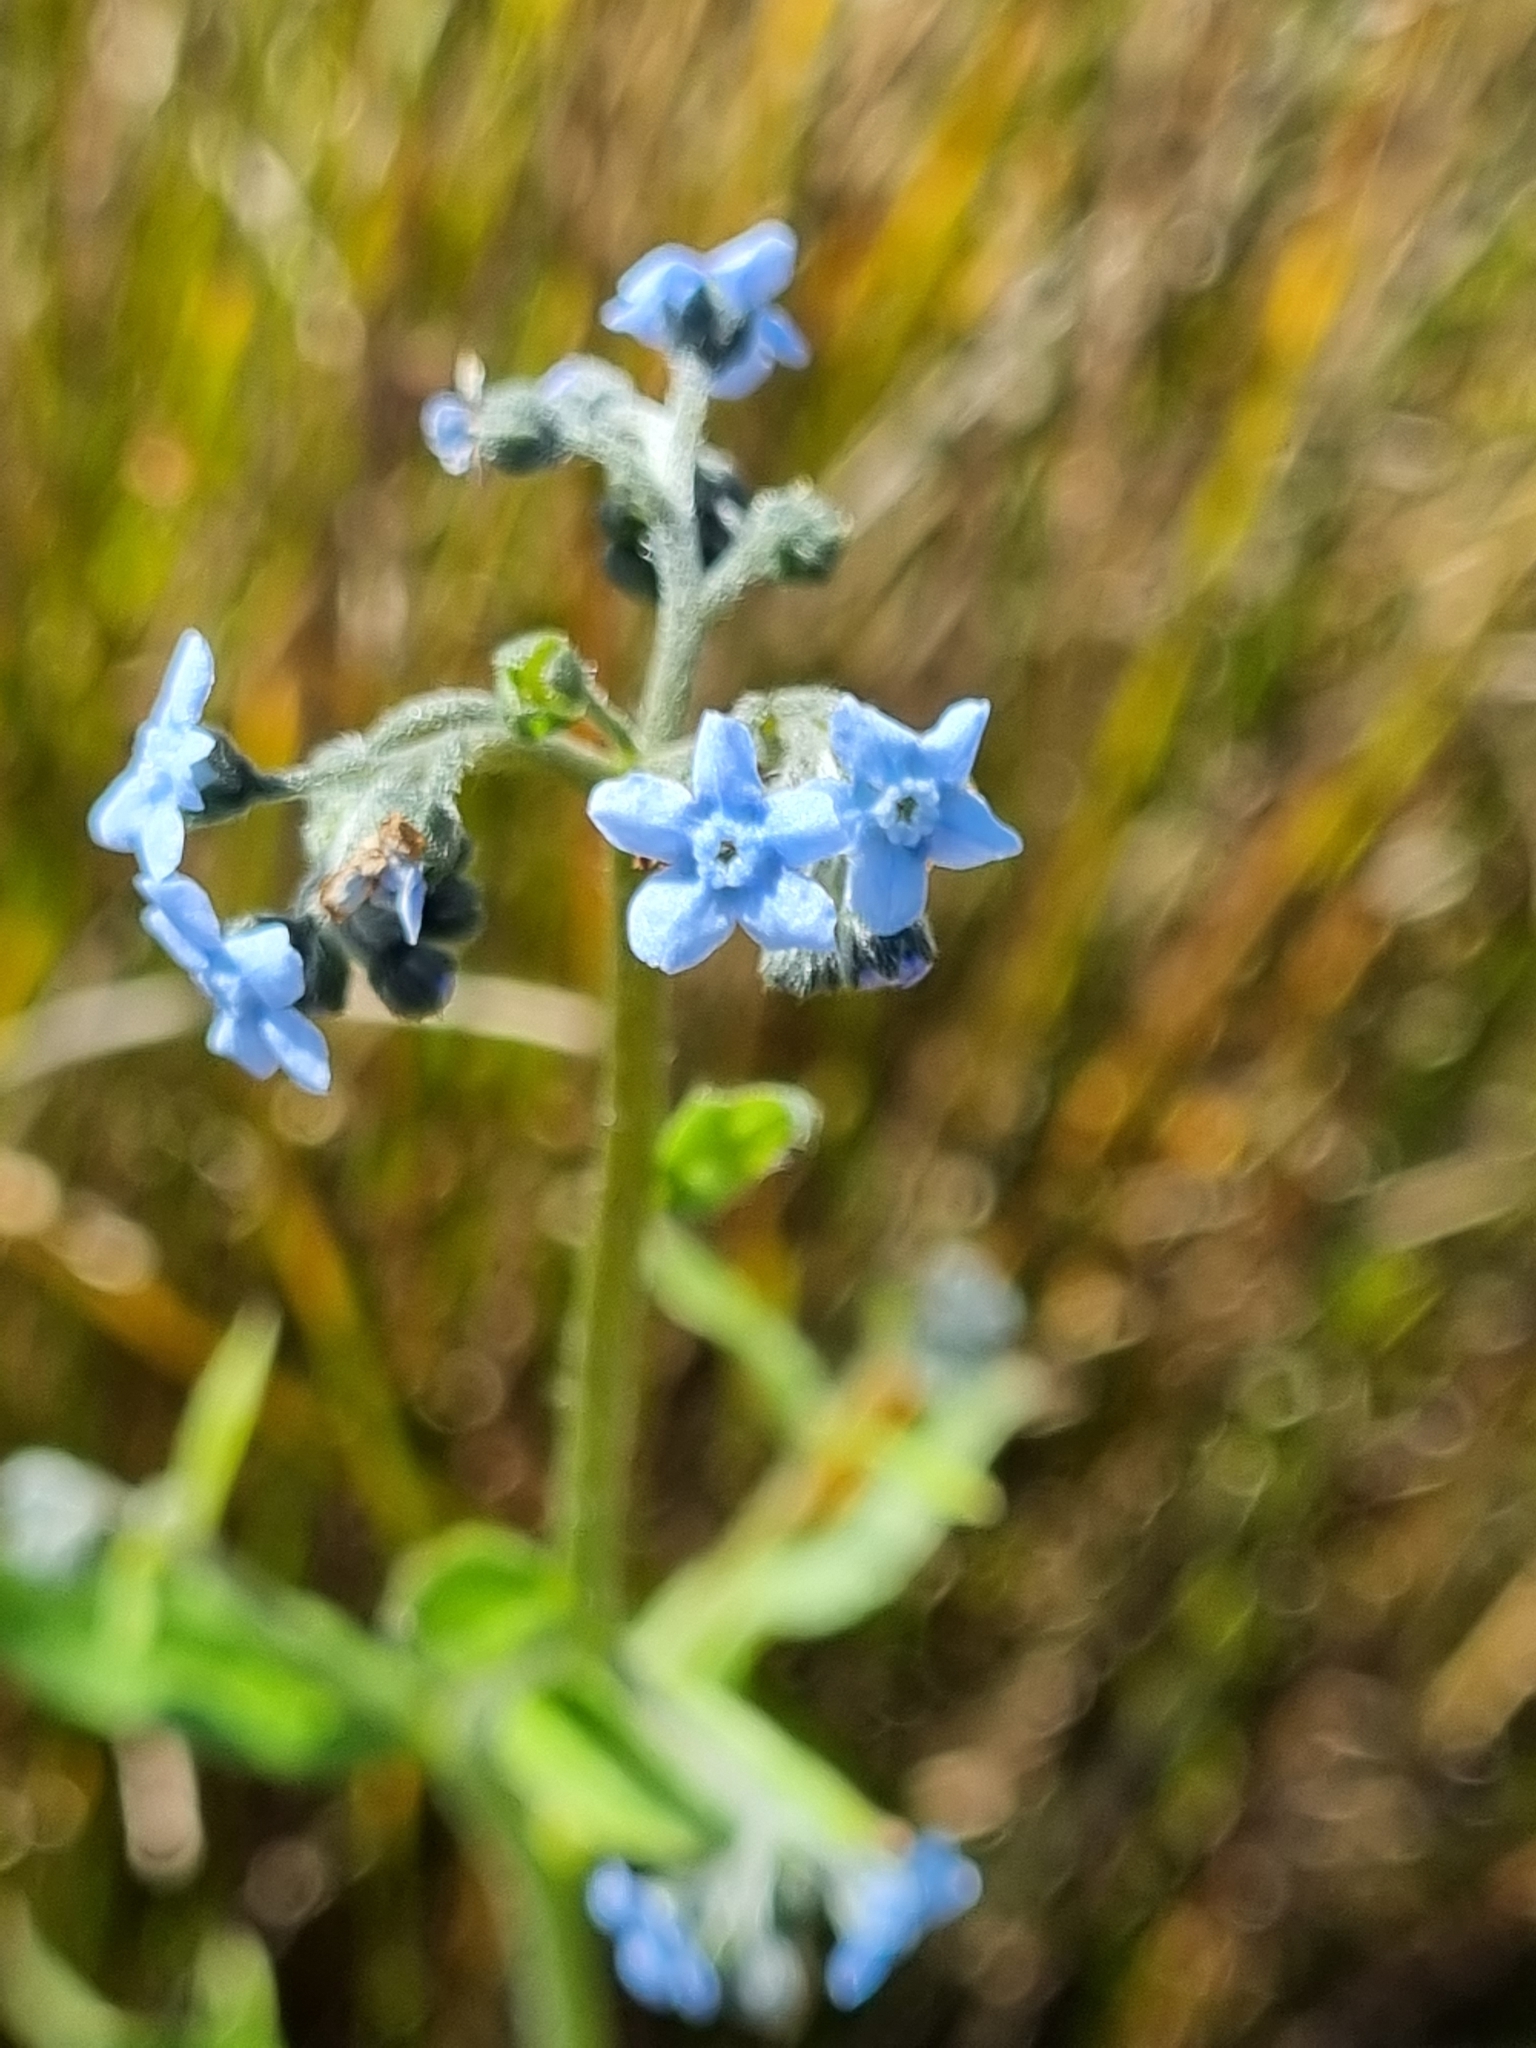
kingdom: Plantae
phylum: Tracheophyta
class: Magnoliopsida
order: Boraginales
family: Boraginaceae
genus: Cynoglossum
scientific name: Cynoglossum australe
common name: Australian hound's-tongue
